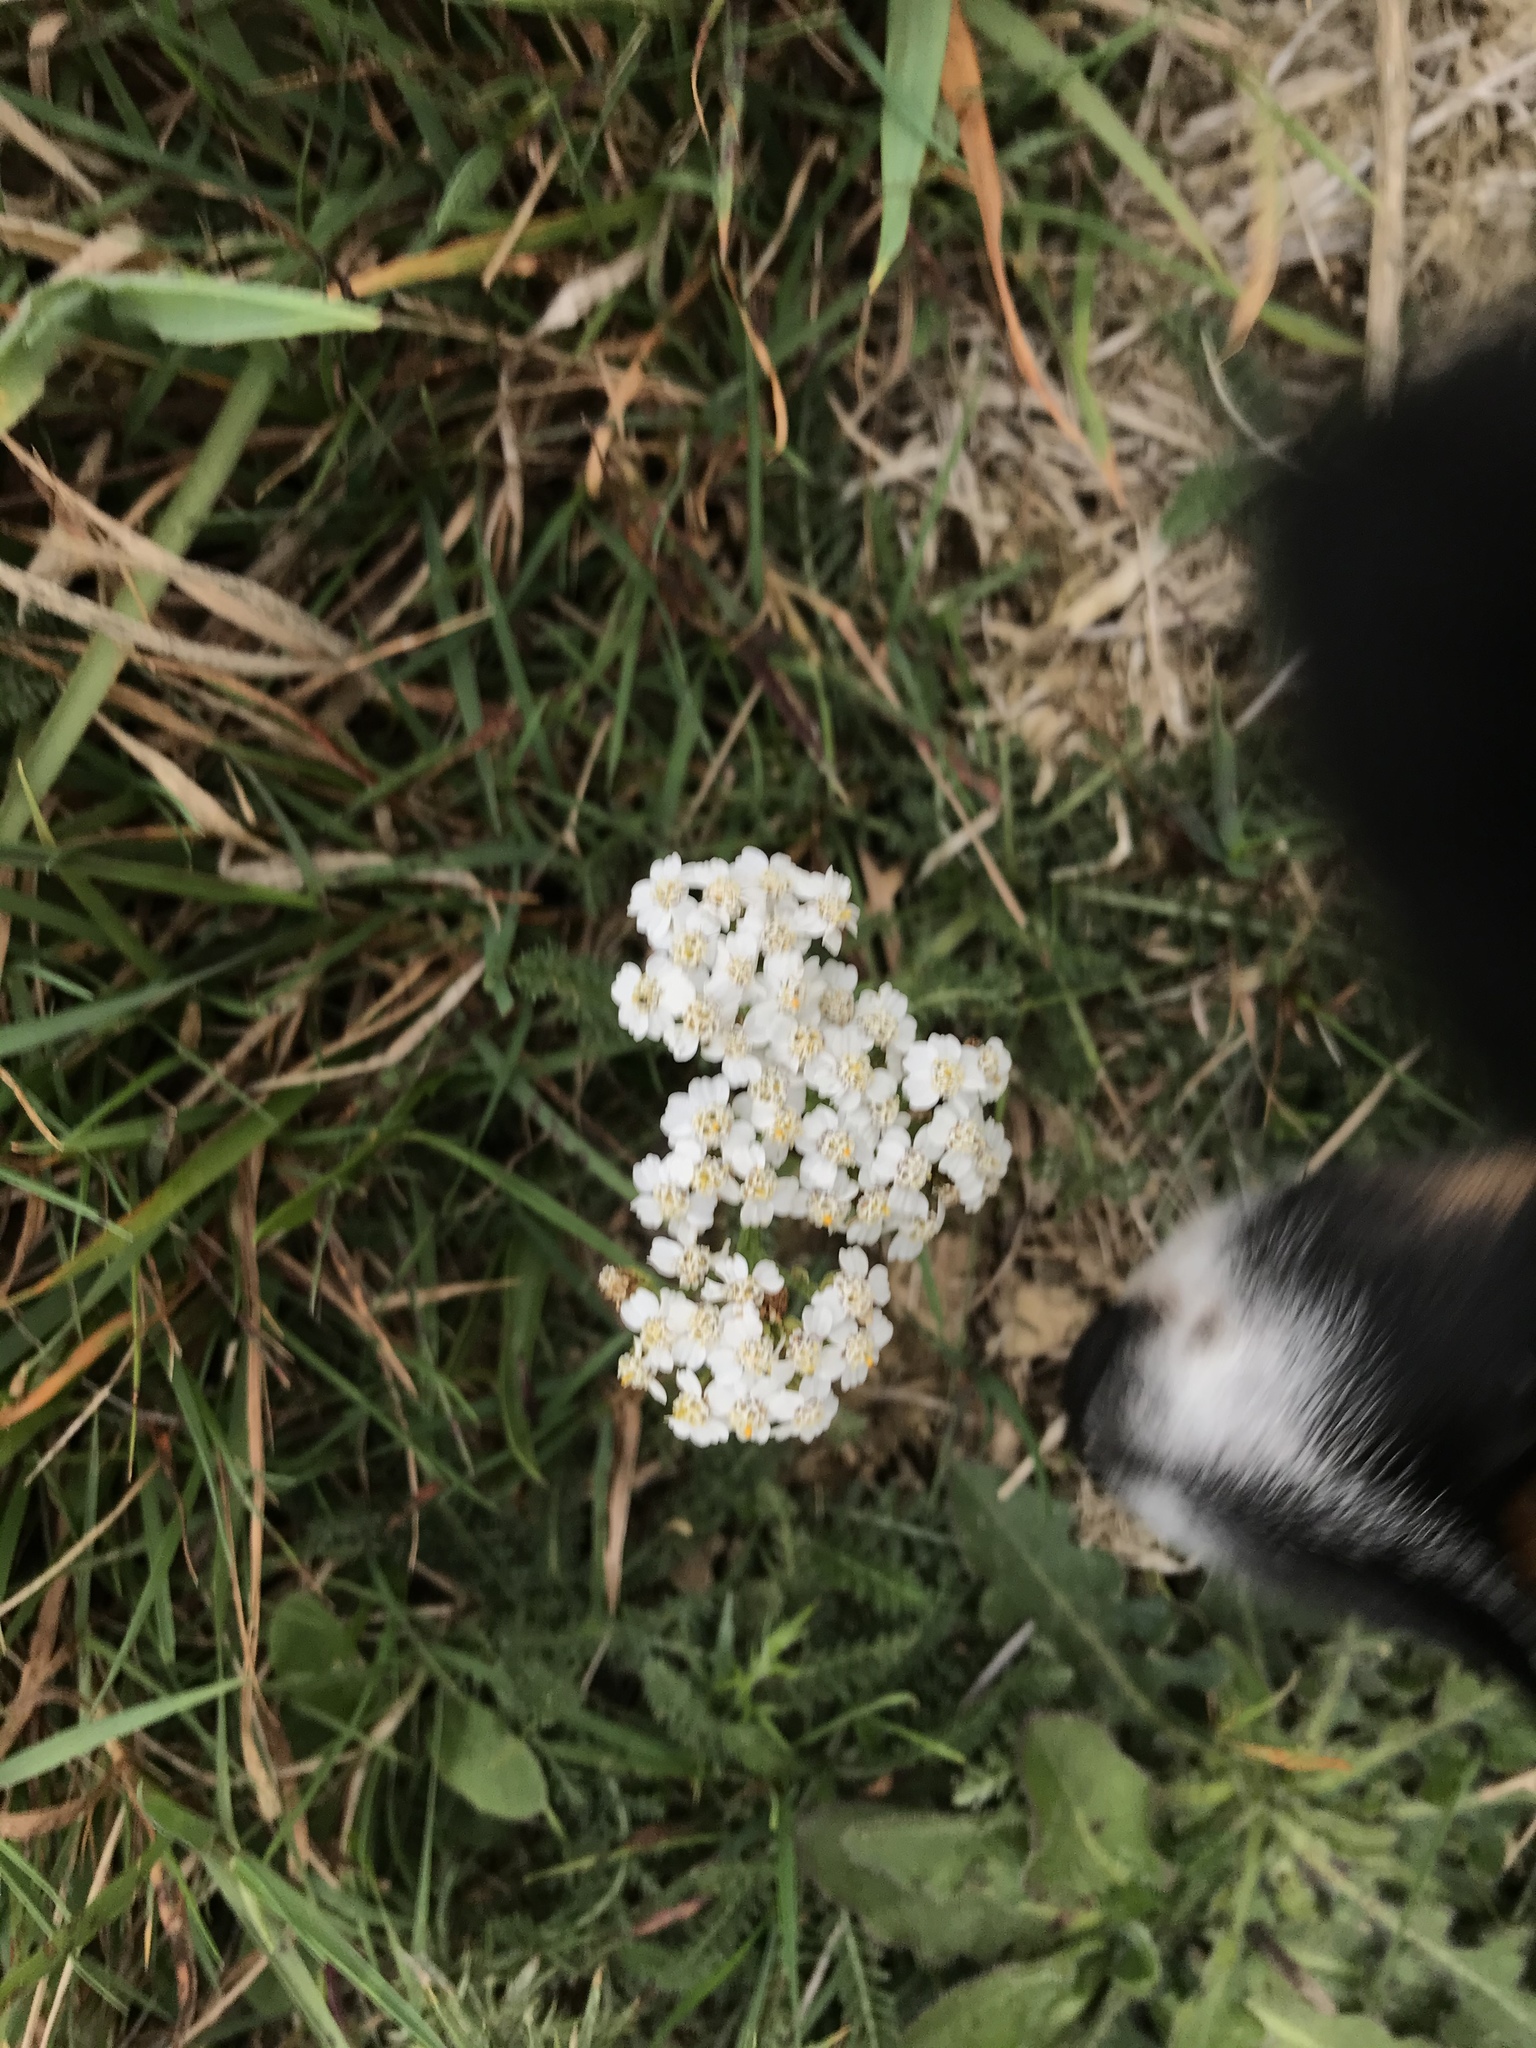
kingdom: Plantae
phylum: Tracheophyta
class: Magnoliopsida
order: Asterales
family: Asteraceae
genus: Achillea
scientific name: Achillea millefolium
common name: Yarrow
